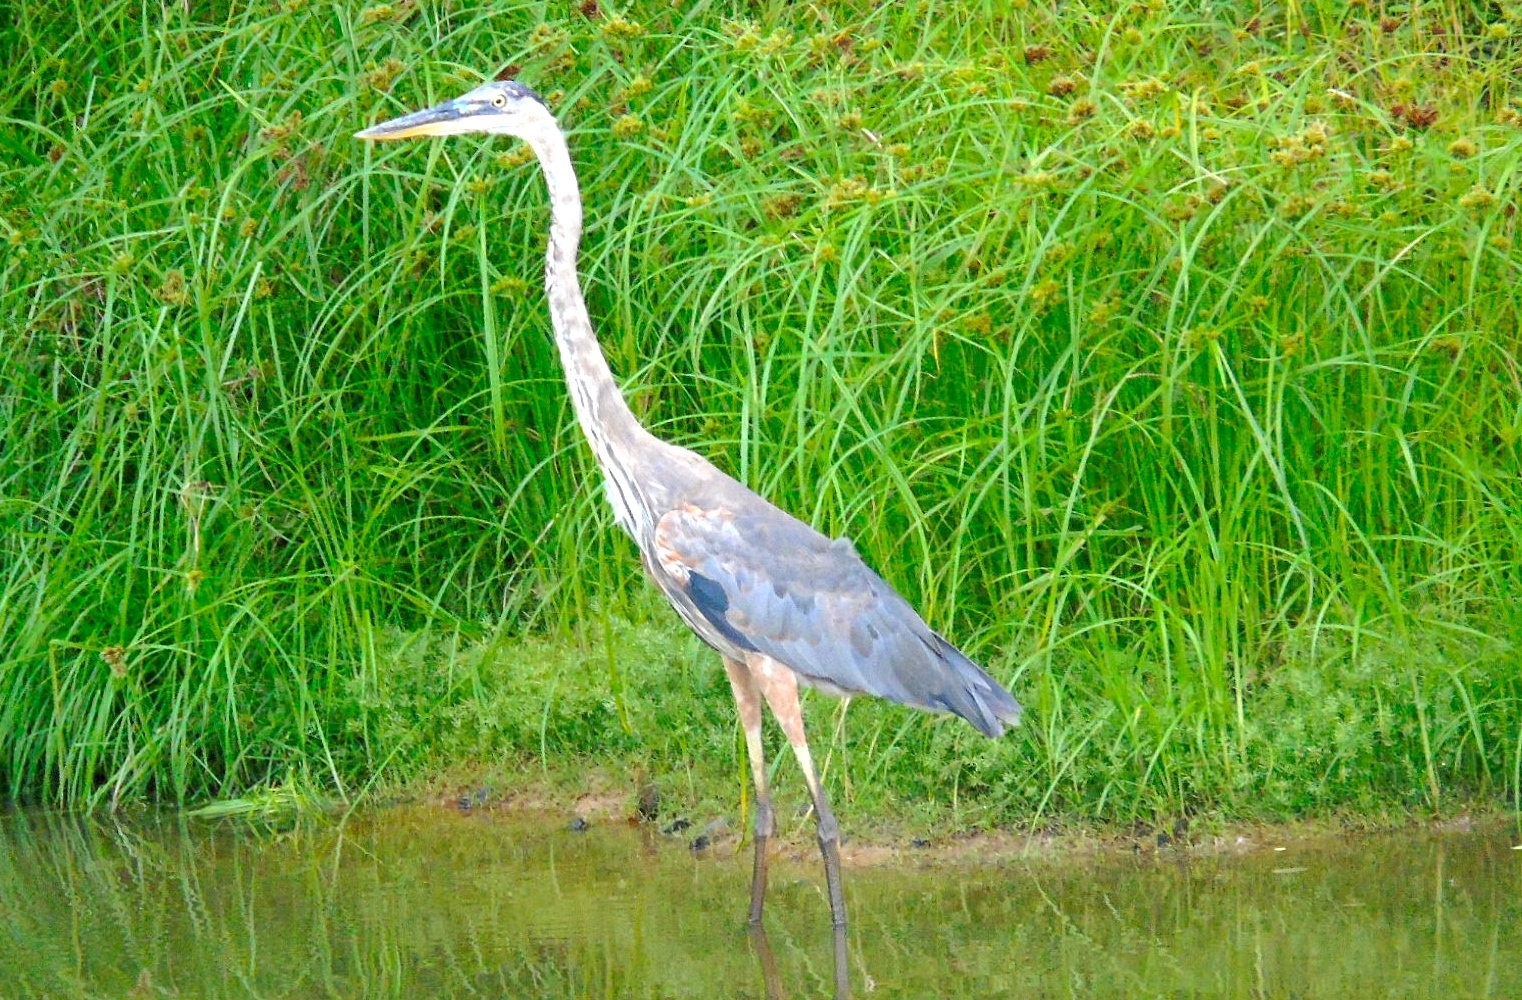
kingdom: Animalia
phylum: Chordata
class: Aves
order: Pelecaniformes
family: Ardeidae
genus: Ardea
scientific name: Ardea herodias
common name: Great blue heron
